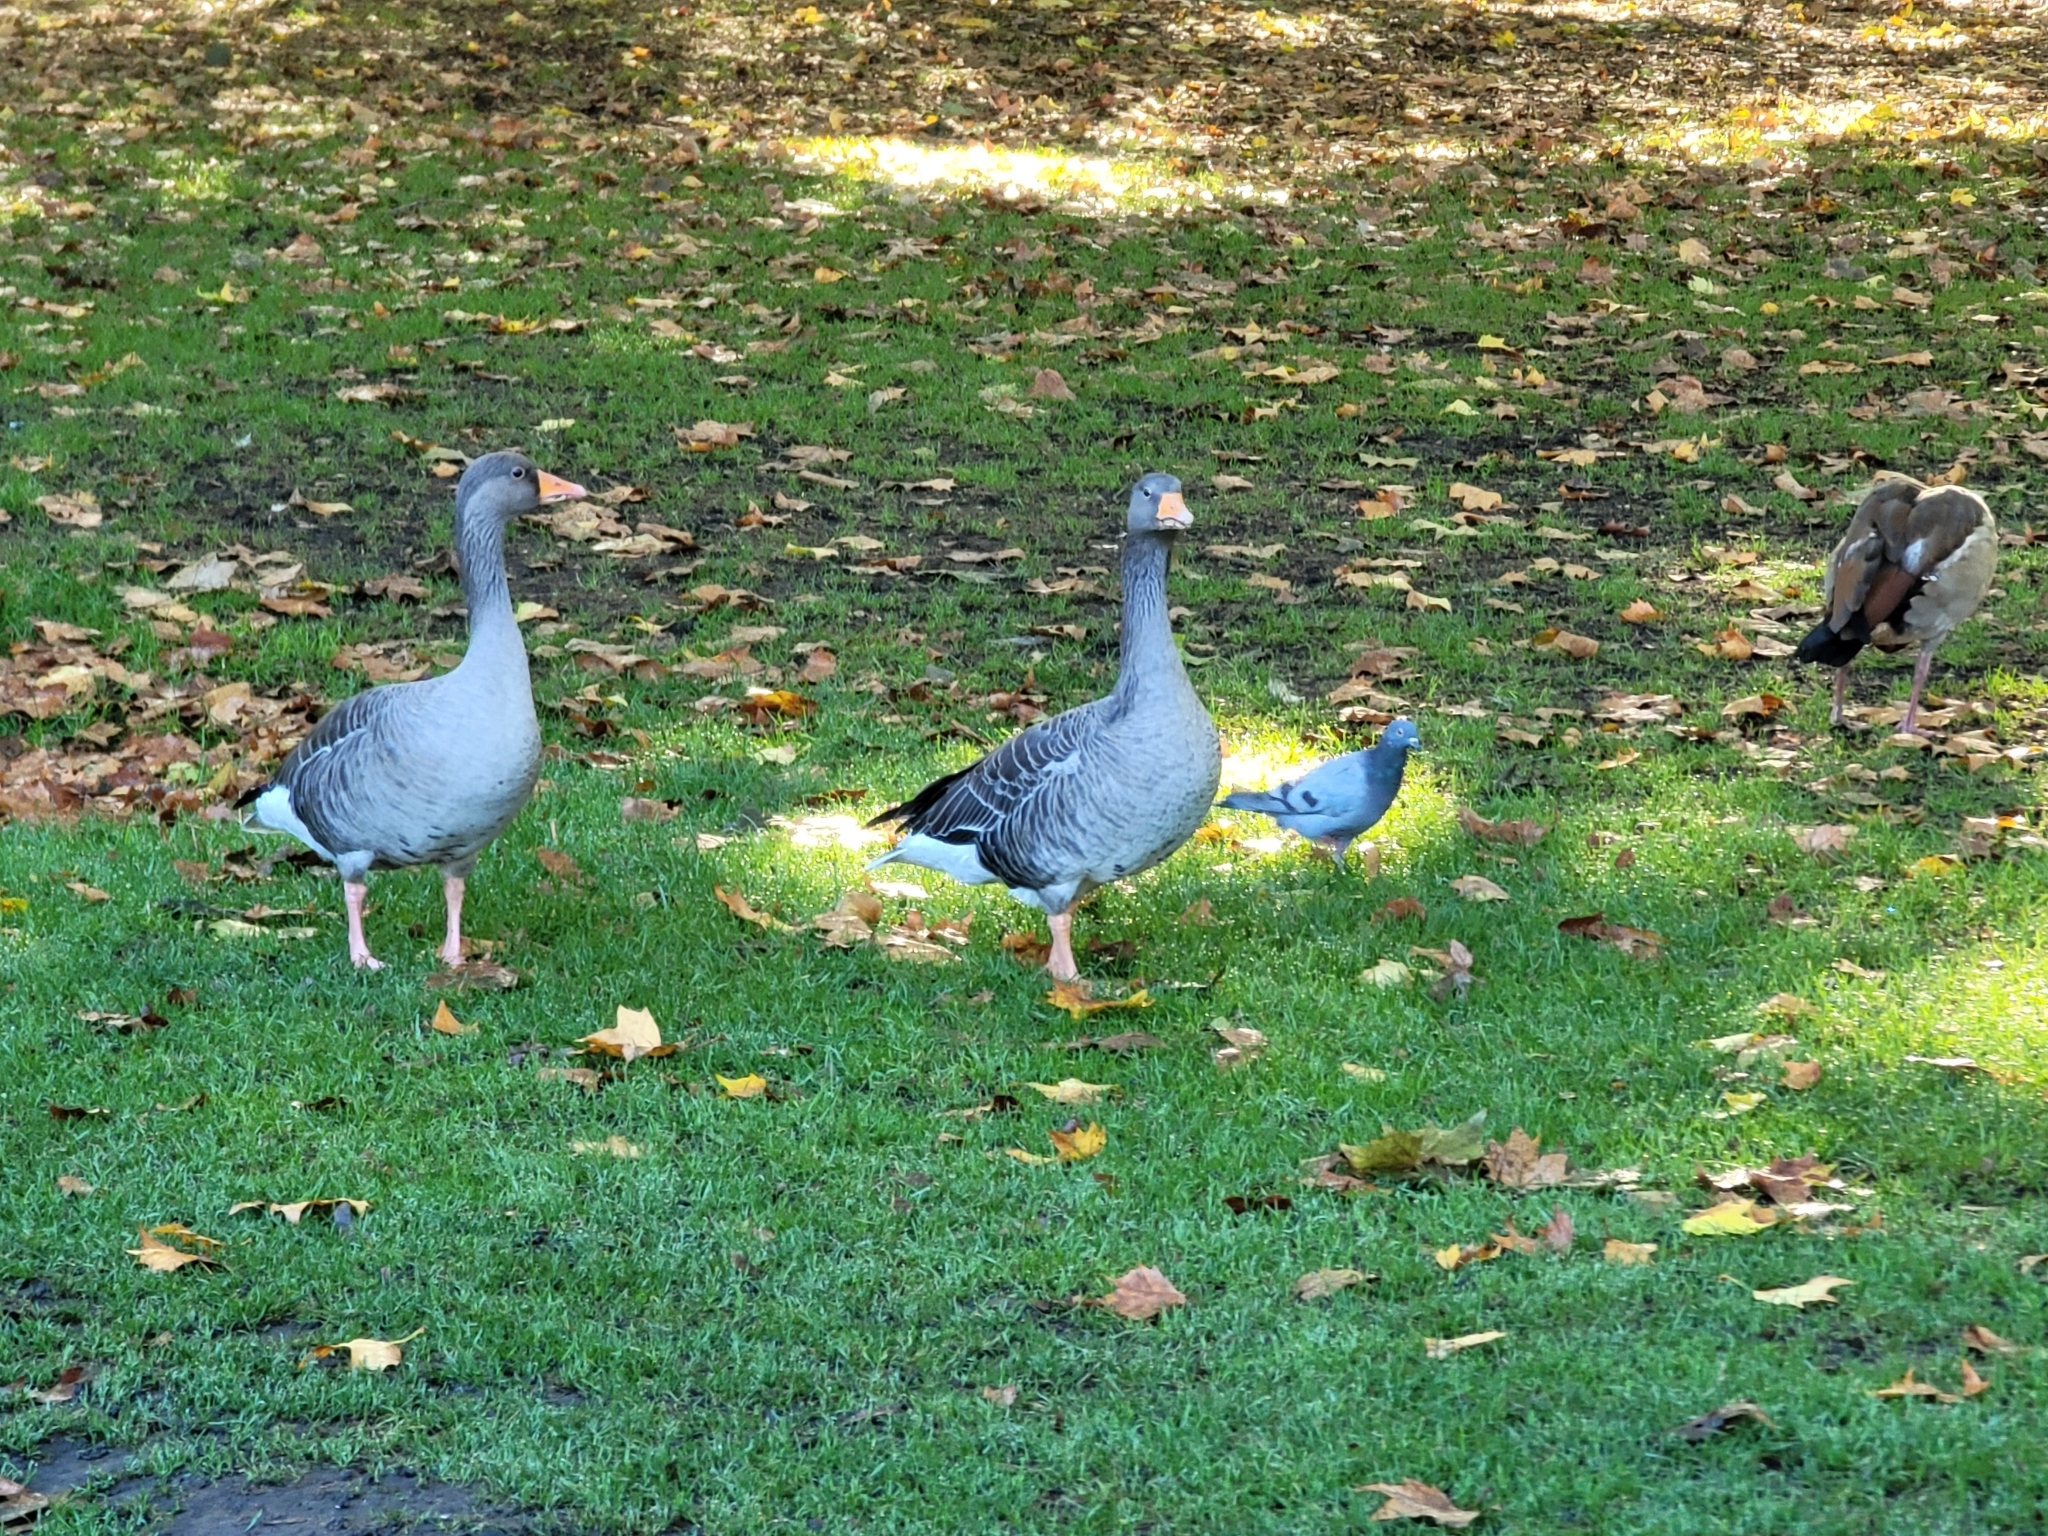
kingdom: Animalia
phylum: Chordata
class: Aves
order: Anseriformes
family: Anatidae
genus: Anser
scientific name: Anser anser
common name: Greylag goose
